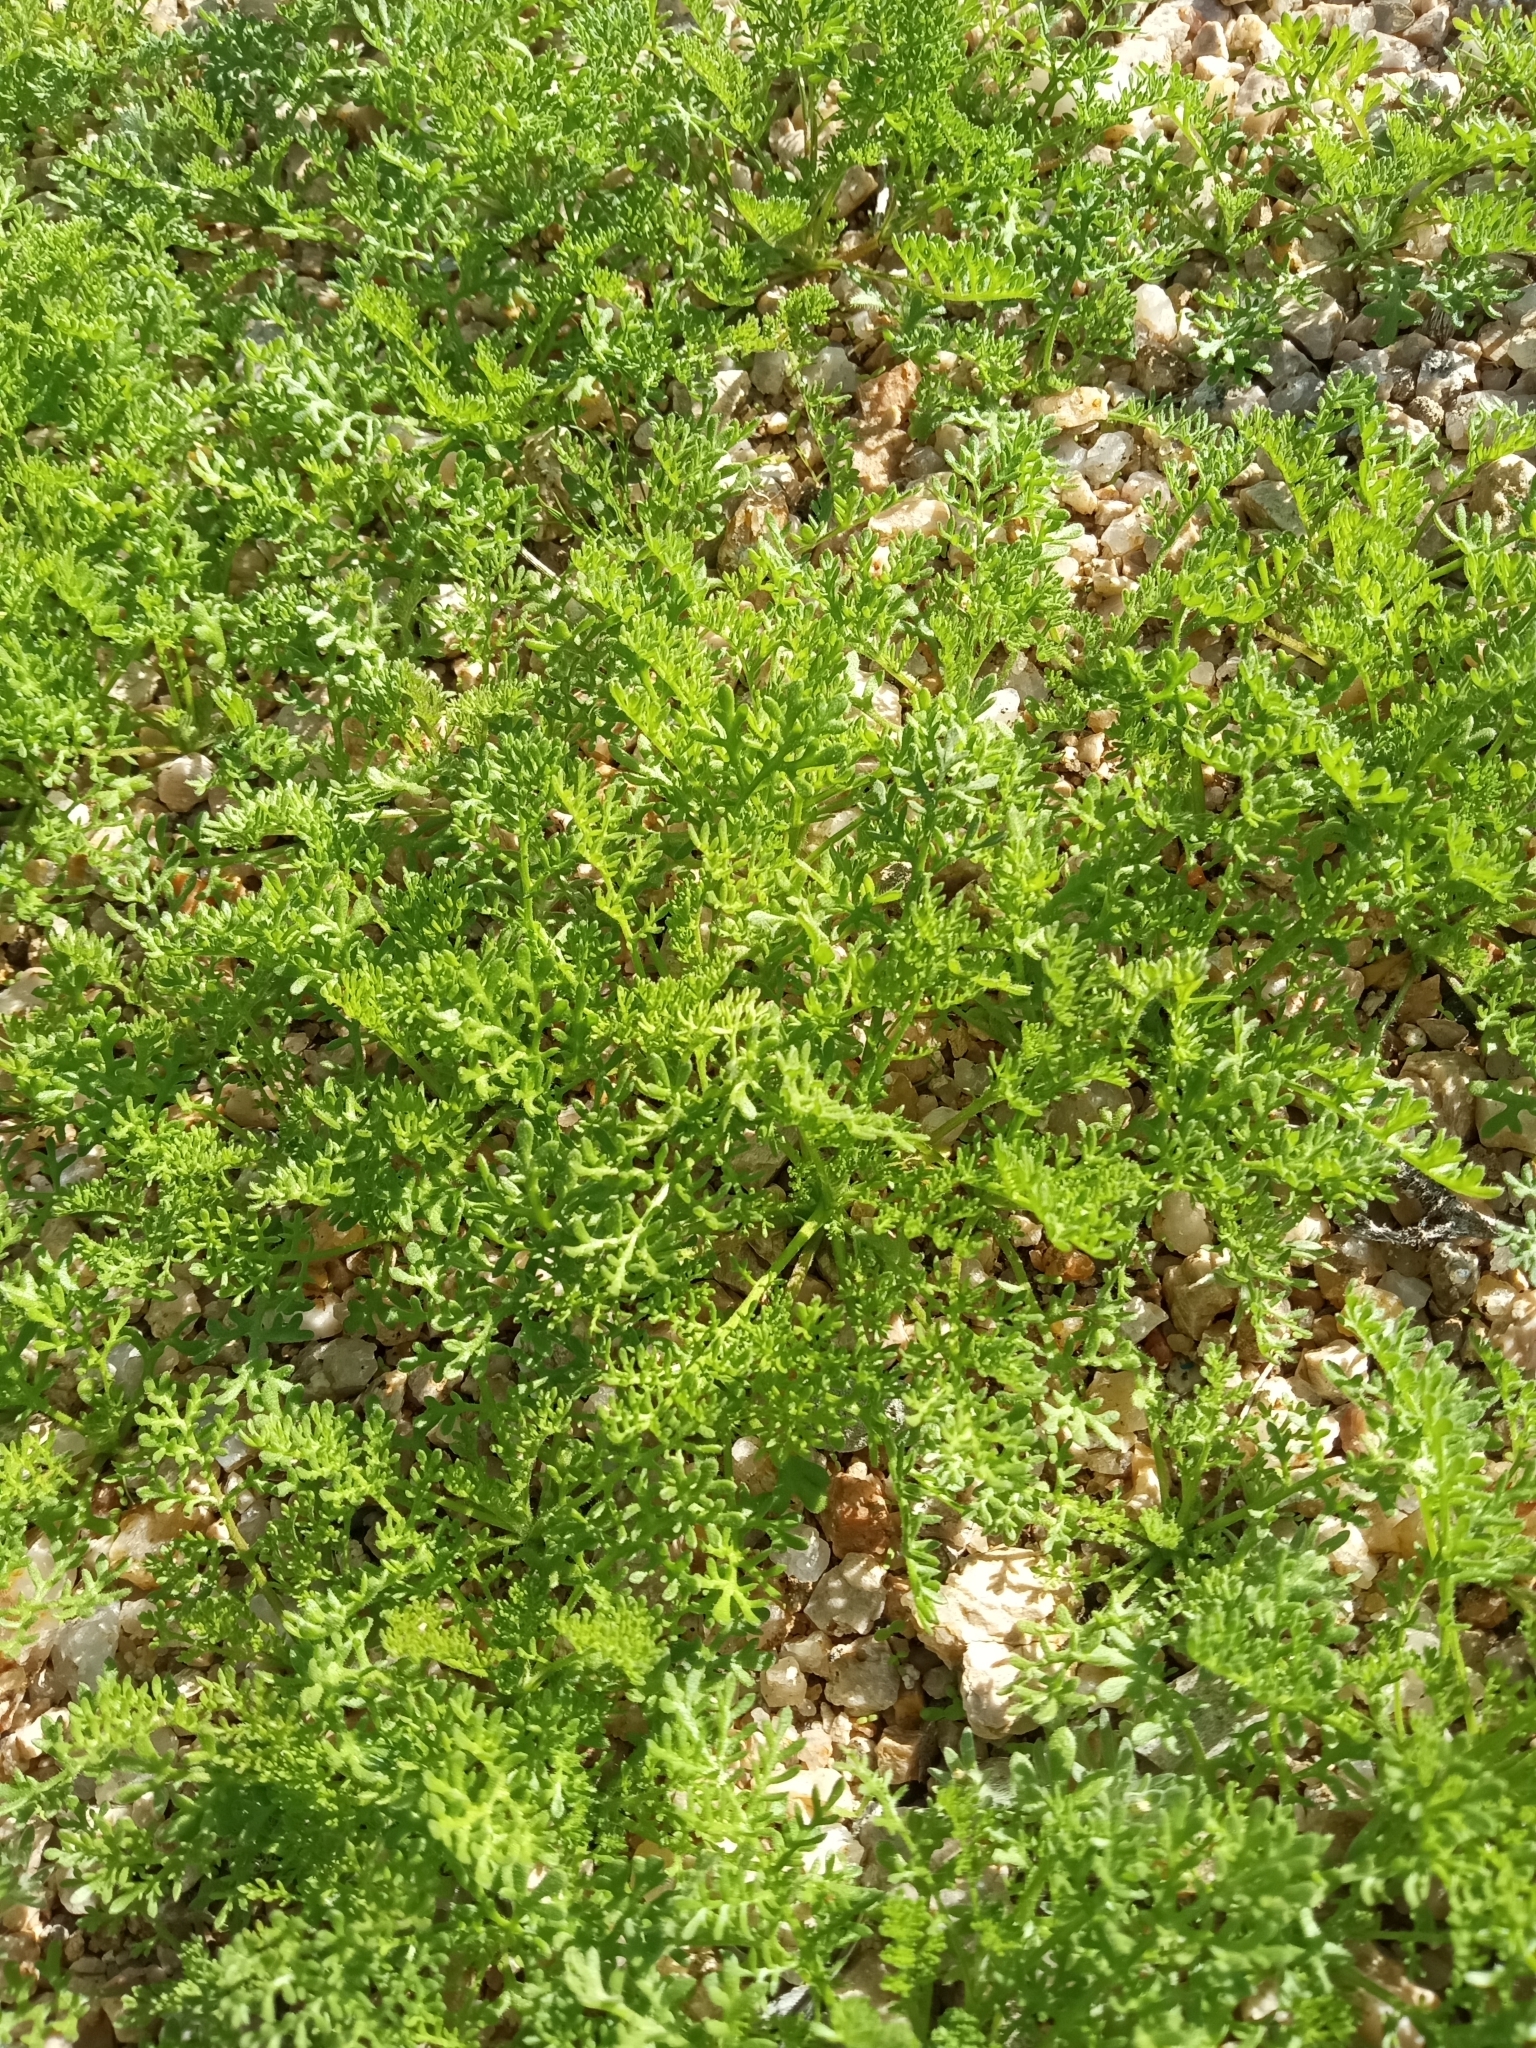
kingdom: Plantae
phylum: Tracheophyta
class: Magnoliopsida
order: Asterales
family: Asteraceae
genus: Oncosiphon
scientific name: Oncosiphon pilulifer
